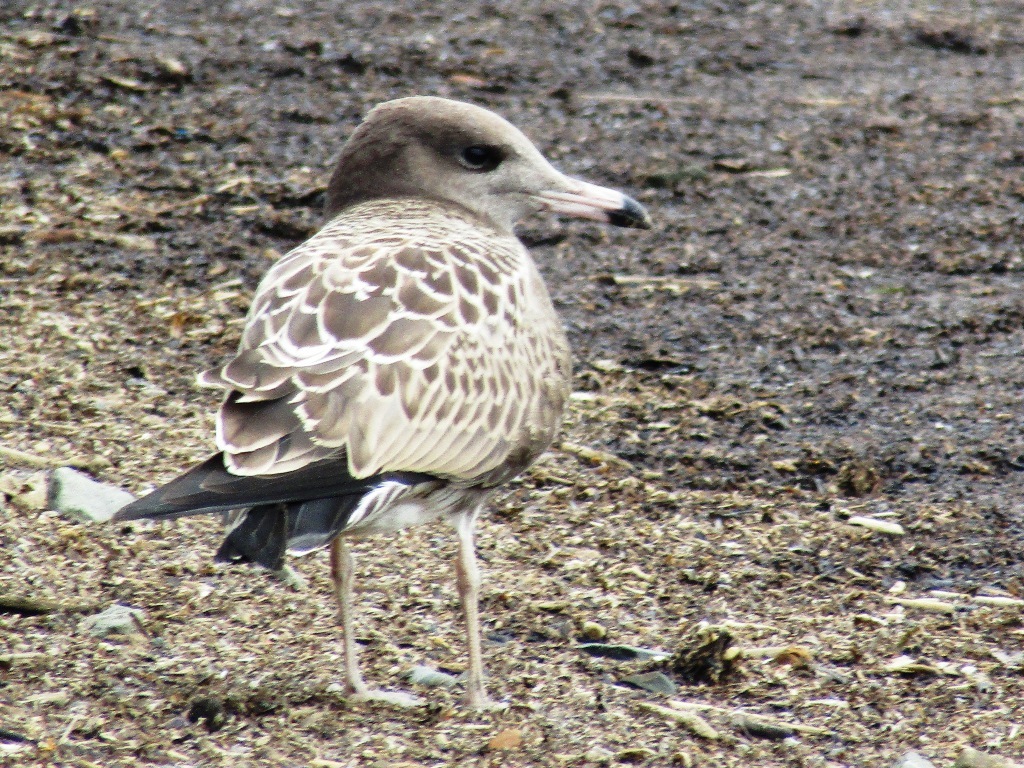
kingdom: Animalia
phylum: Chordata
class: Aves
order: Charadriiformes
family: Laridae
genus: Larus
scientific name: Larus crassirostris
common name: Black-tailed gull
